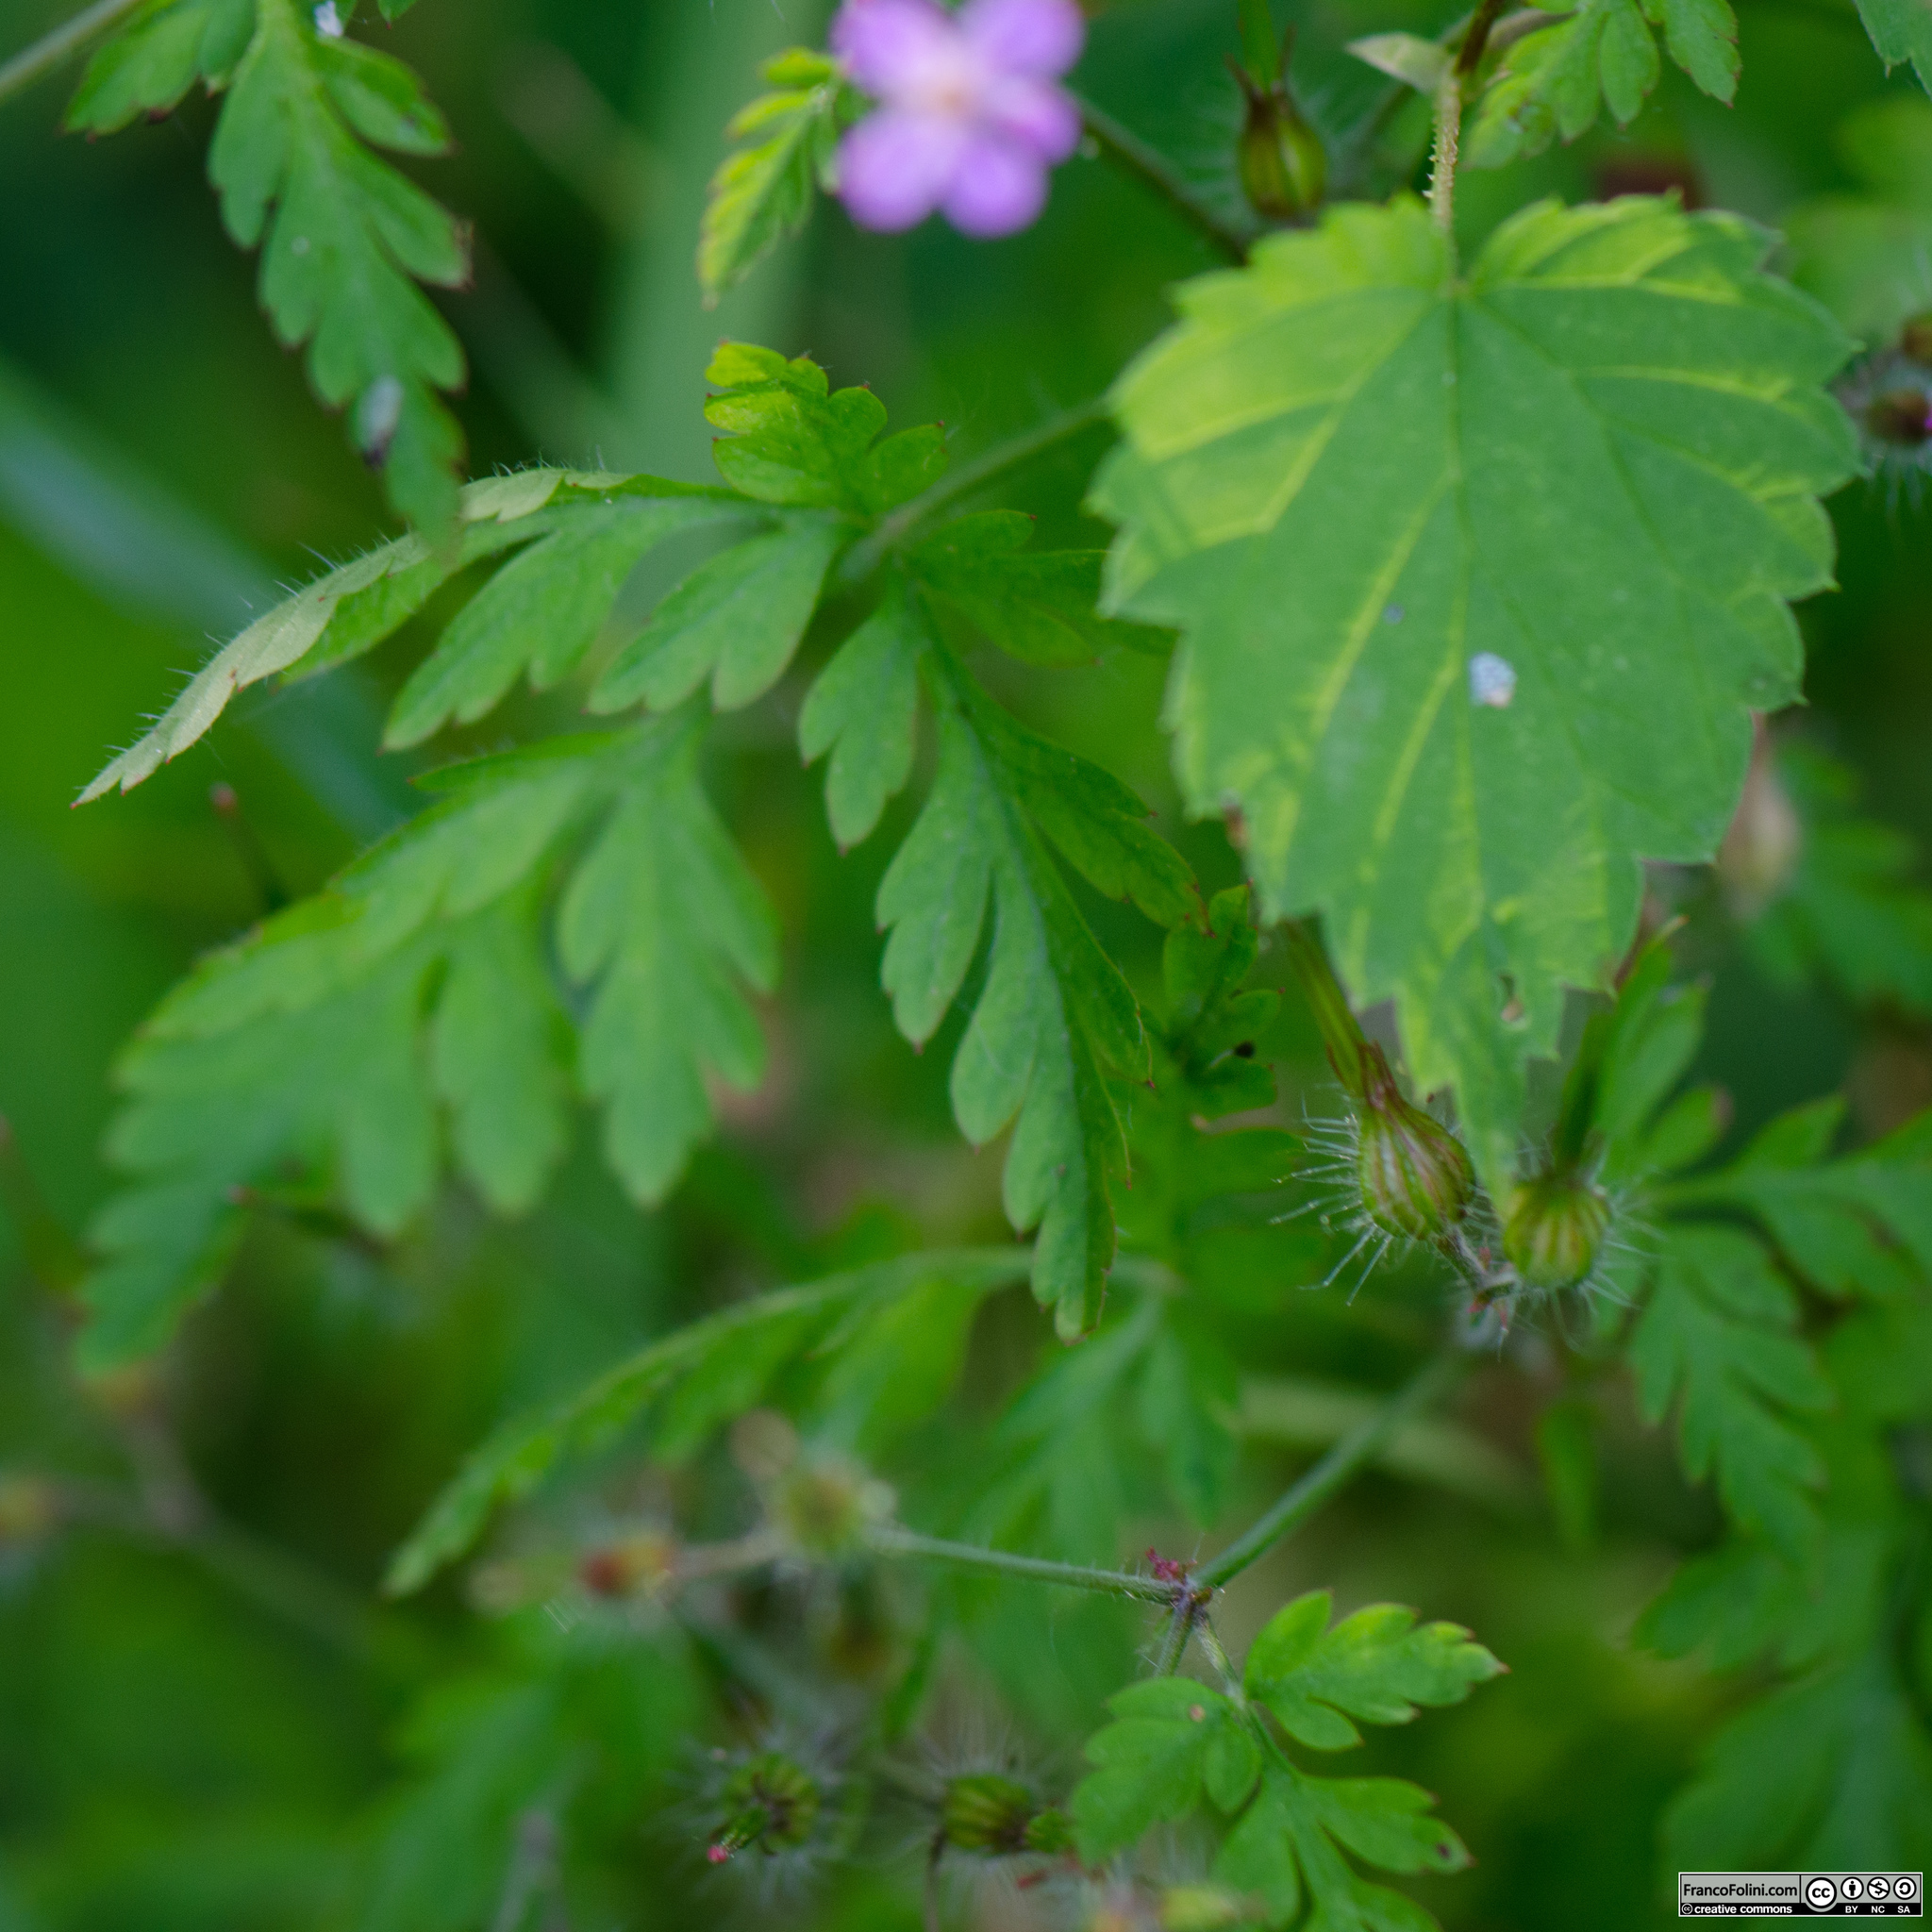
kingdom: Plantae
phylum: Tracheophyta
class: Magnoliopsida
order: Geraniales
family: Geraniaceae
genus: Geranium
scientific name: Geranium robertianum
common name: Herb-robert
